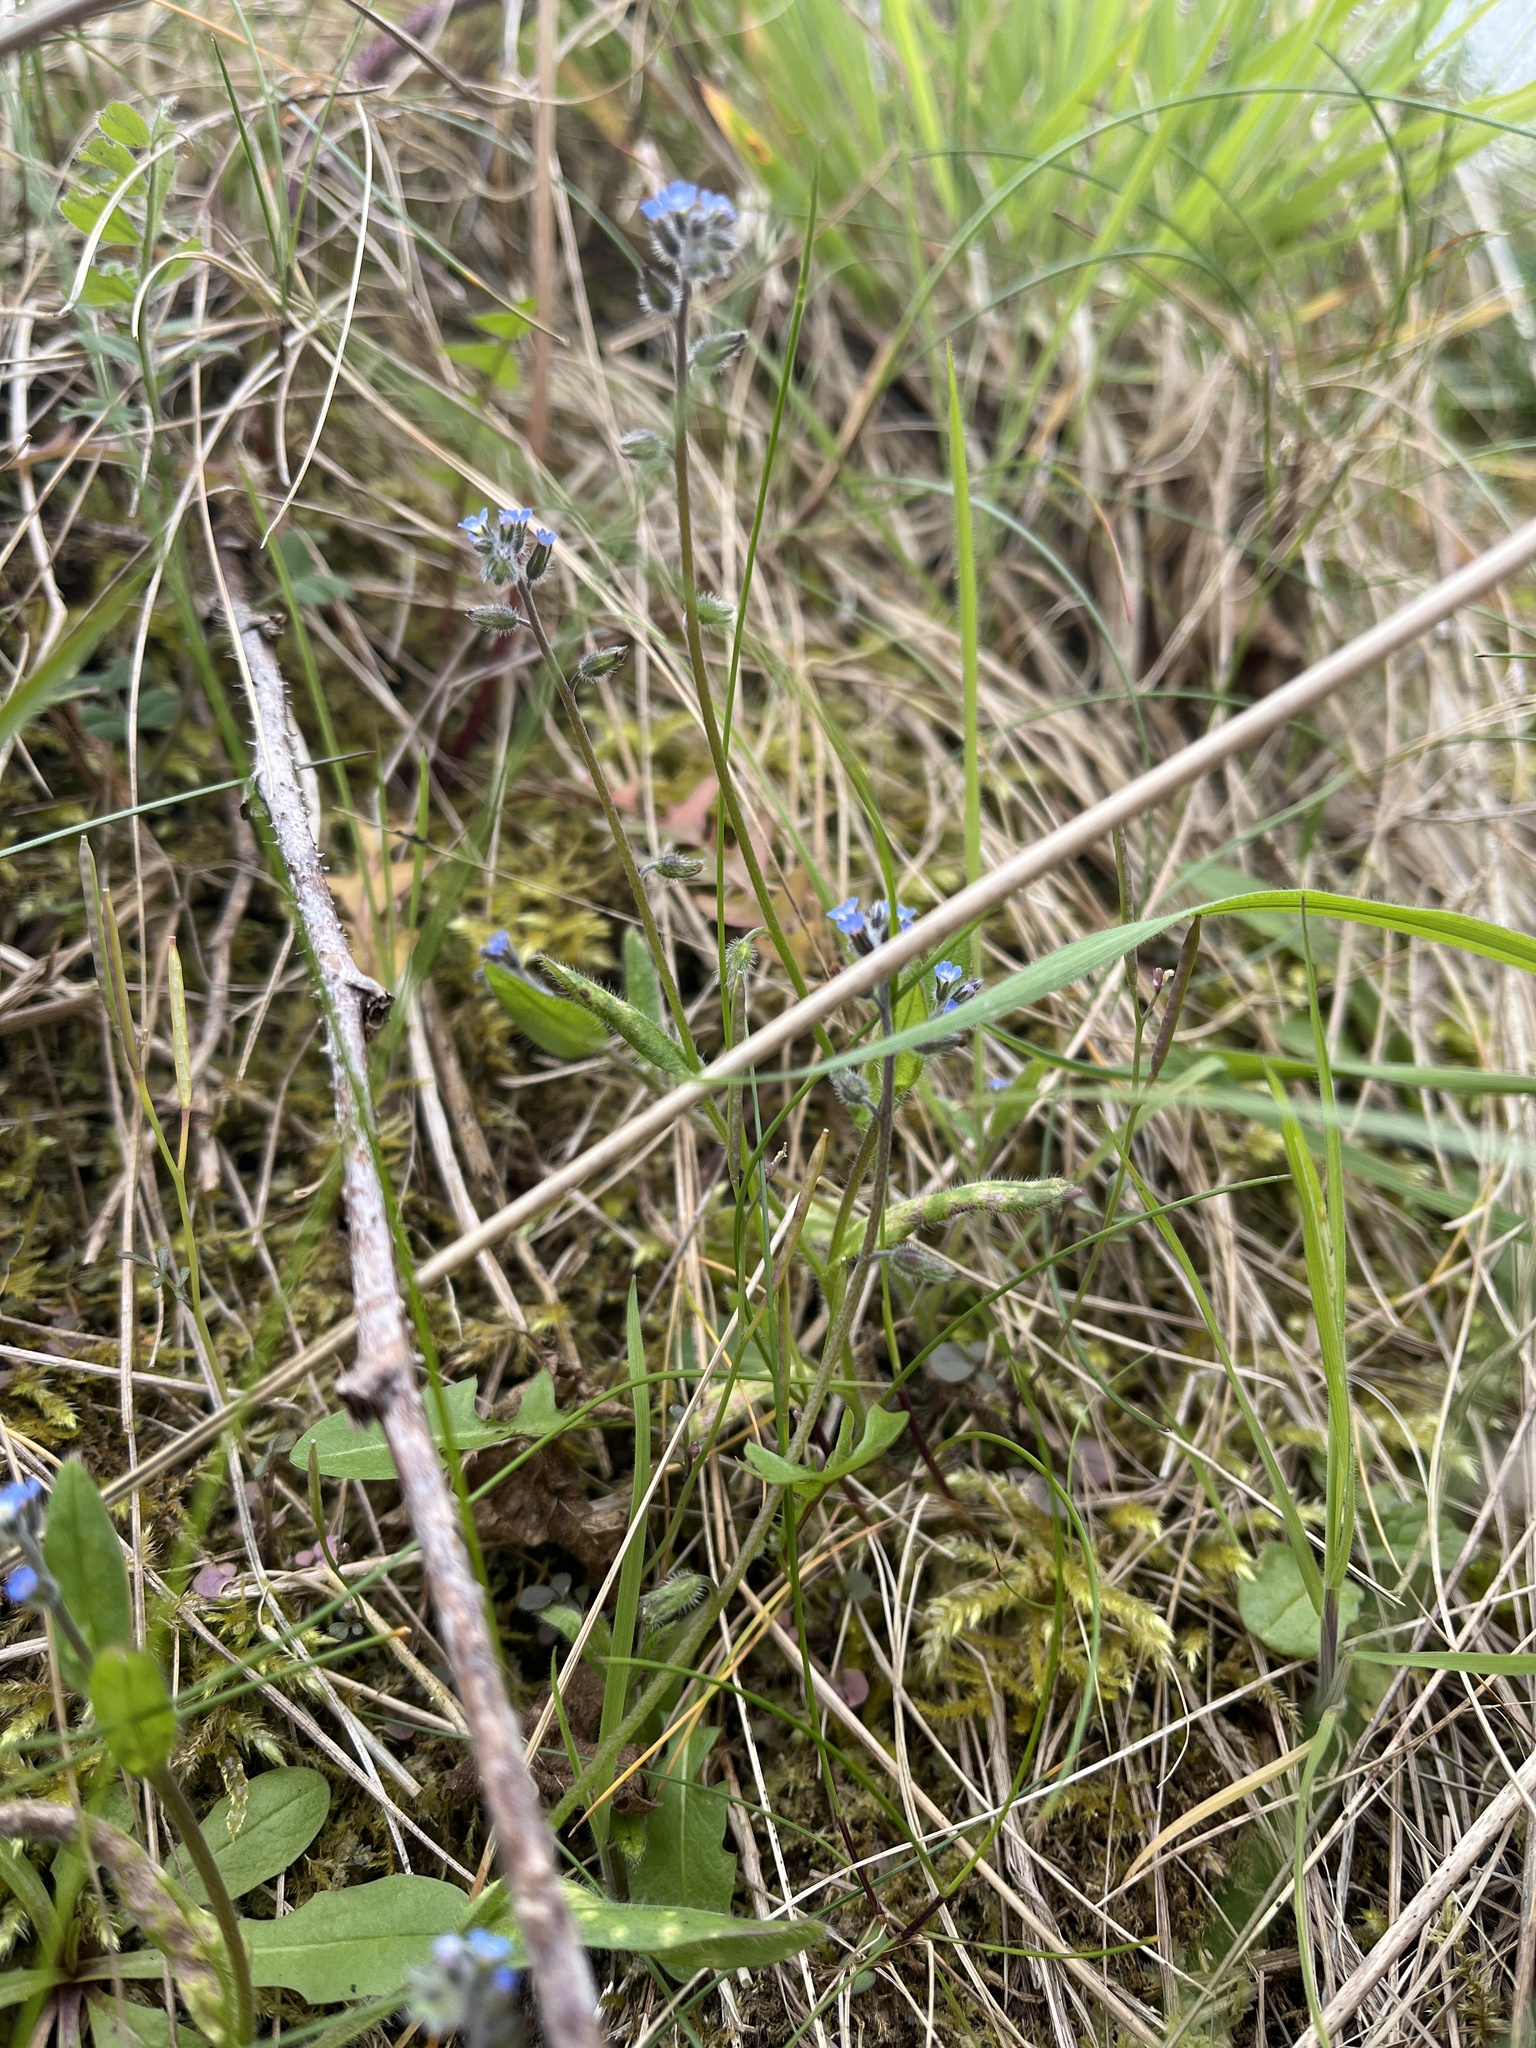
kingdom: Plantae
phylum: Tracheophyta
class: Magnoliopsida
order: Boraginales
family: Boraginaceae
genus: Myosotis
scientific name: Myosotis ramosissima
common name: Early forget-me-not
